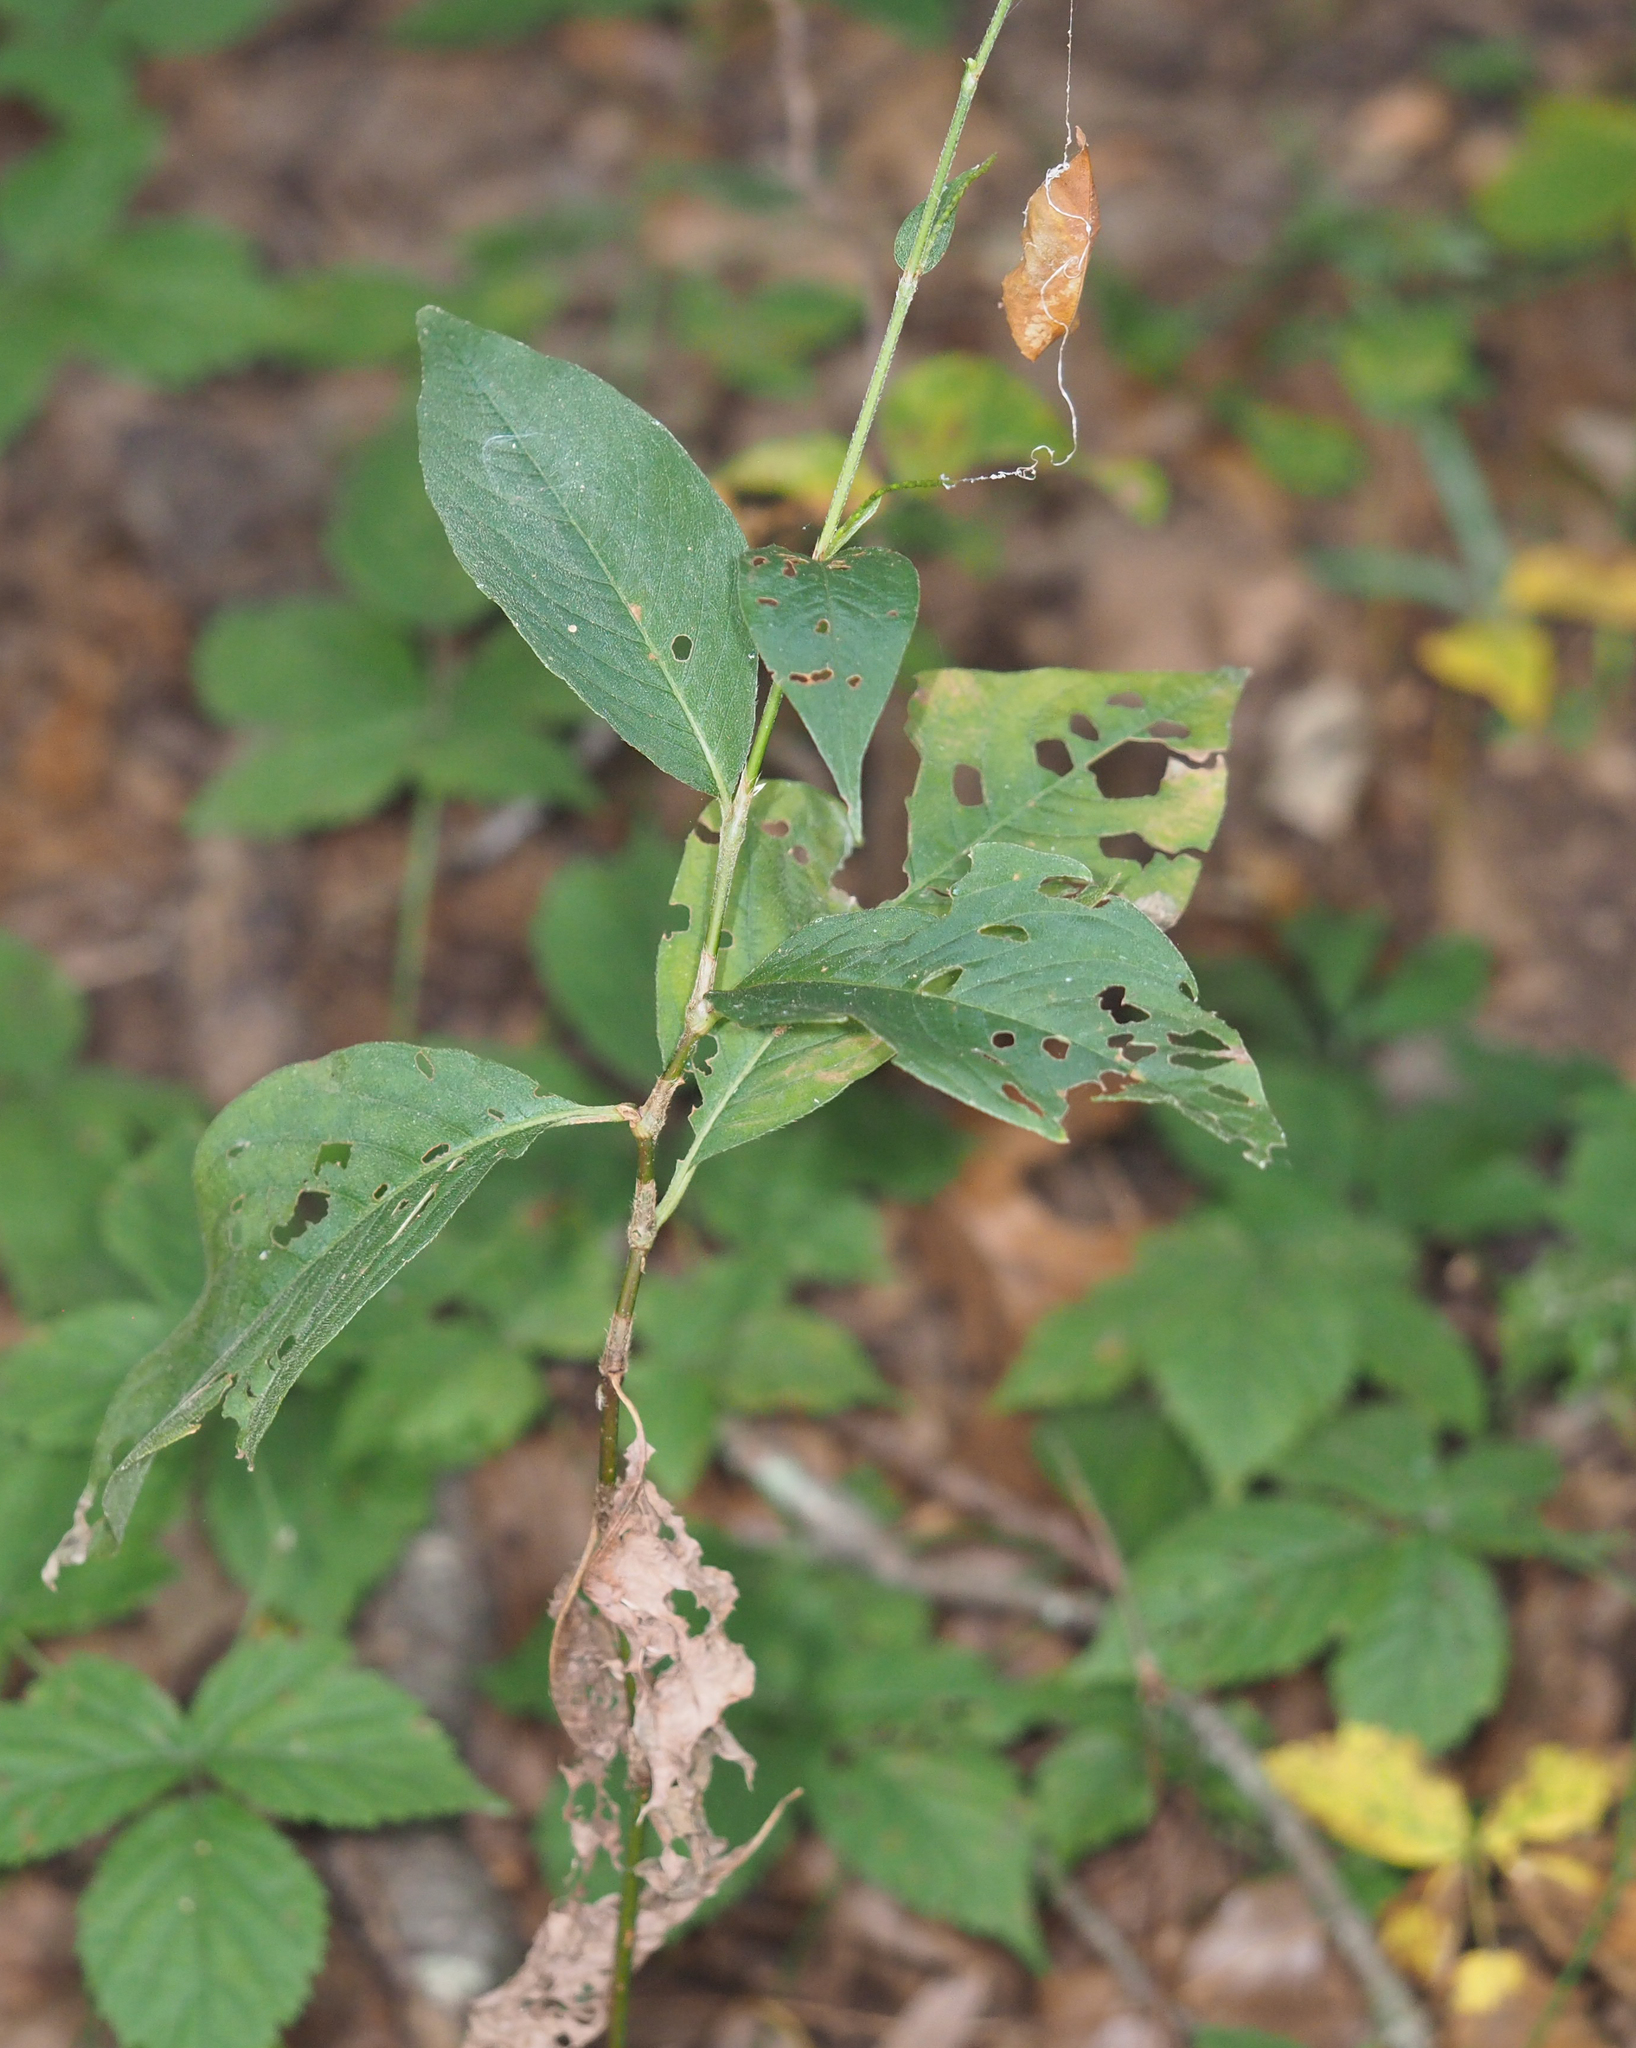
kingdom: Plantae
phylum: Tracheophyta
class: Magnoliopsida
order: Caryophyllales
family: Polygonaceae
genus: Persicaria
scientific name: Persicaria virginiana
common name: Jumpseed
